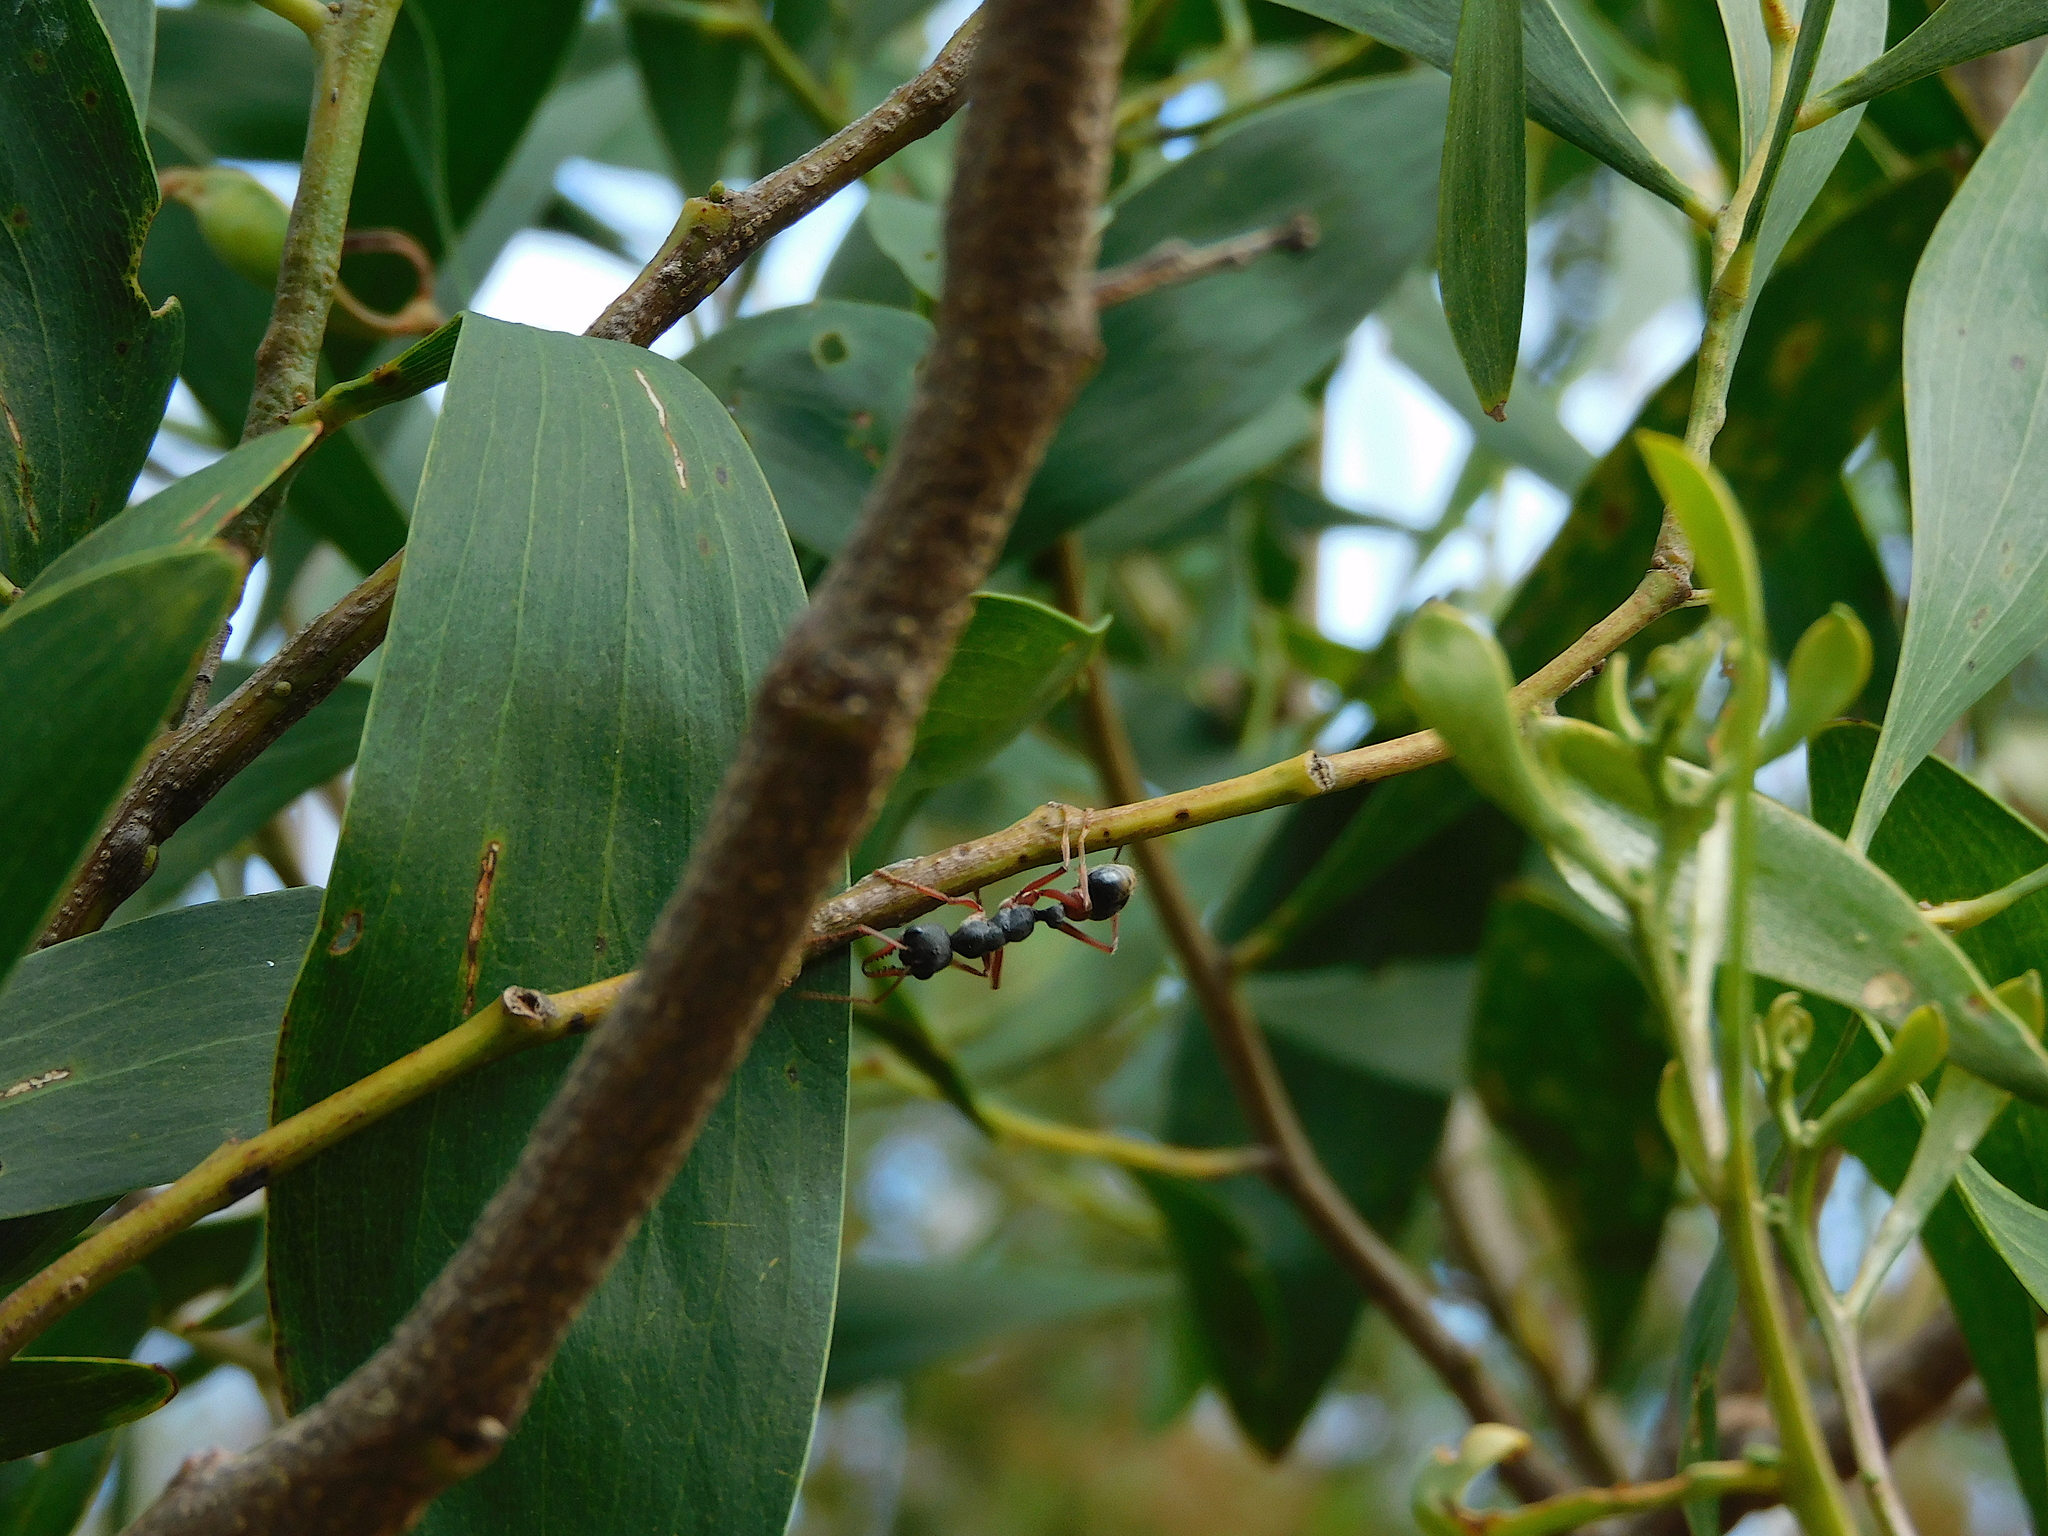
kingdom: Animalia
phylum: Arthropoda
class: Insecta
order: Hymenoptera
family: Formicidae
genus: Myrmecia
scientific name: Myrmecia esuriens
